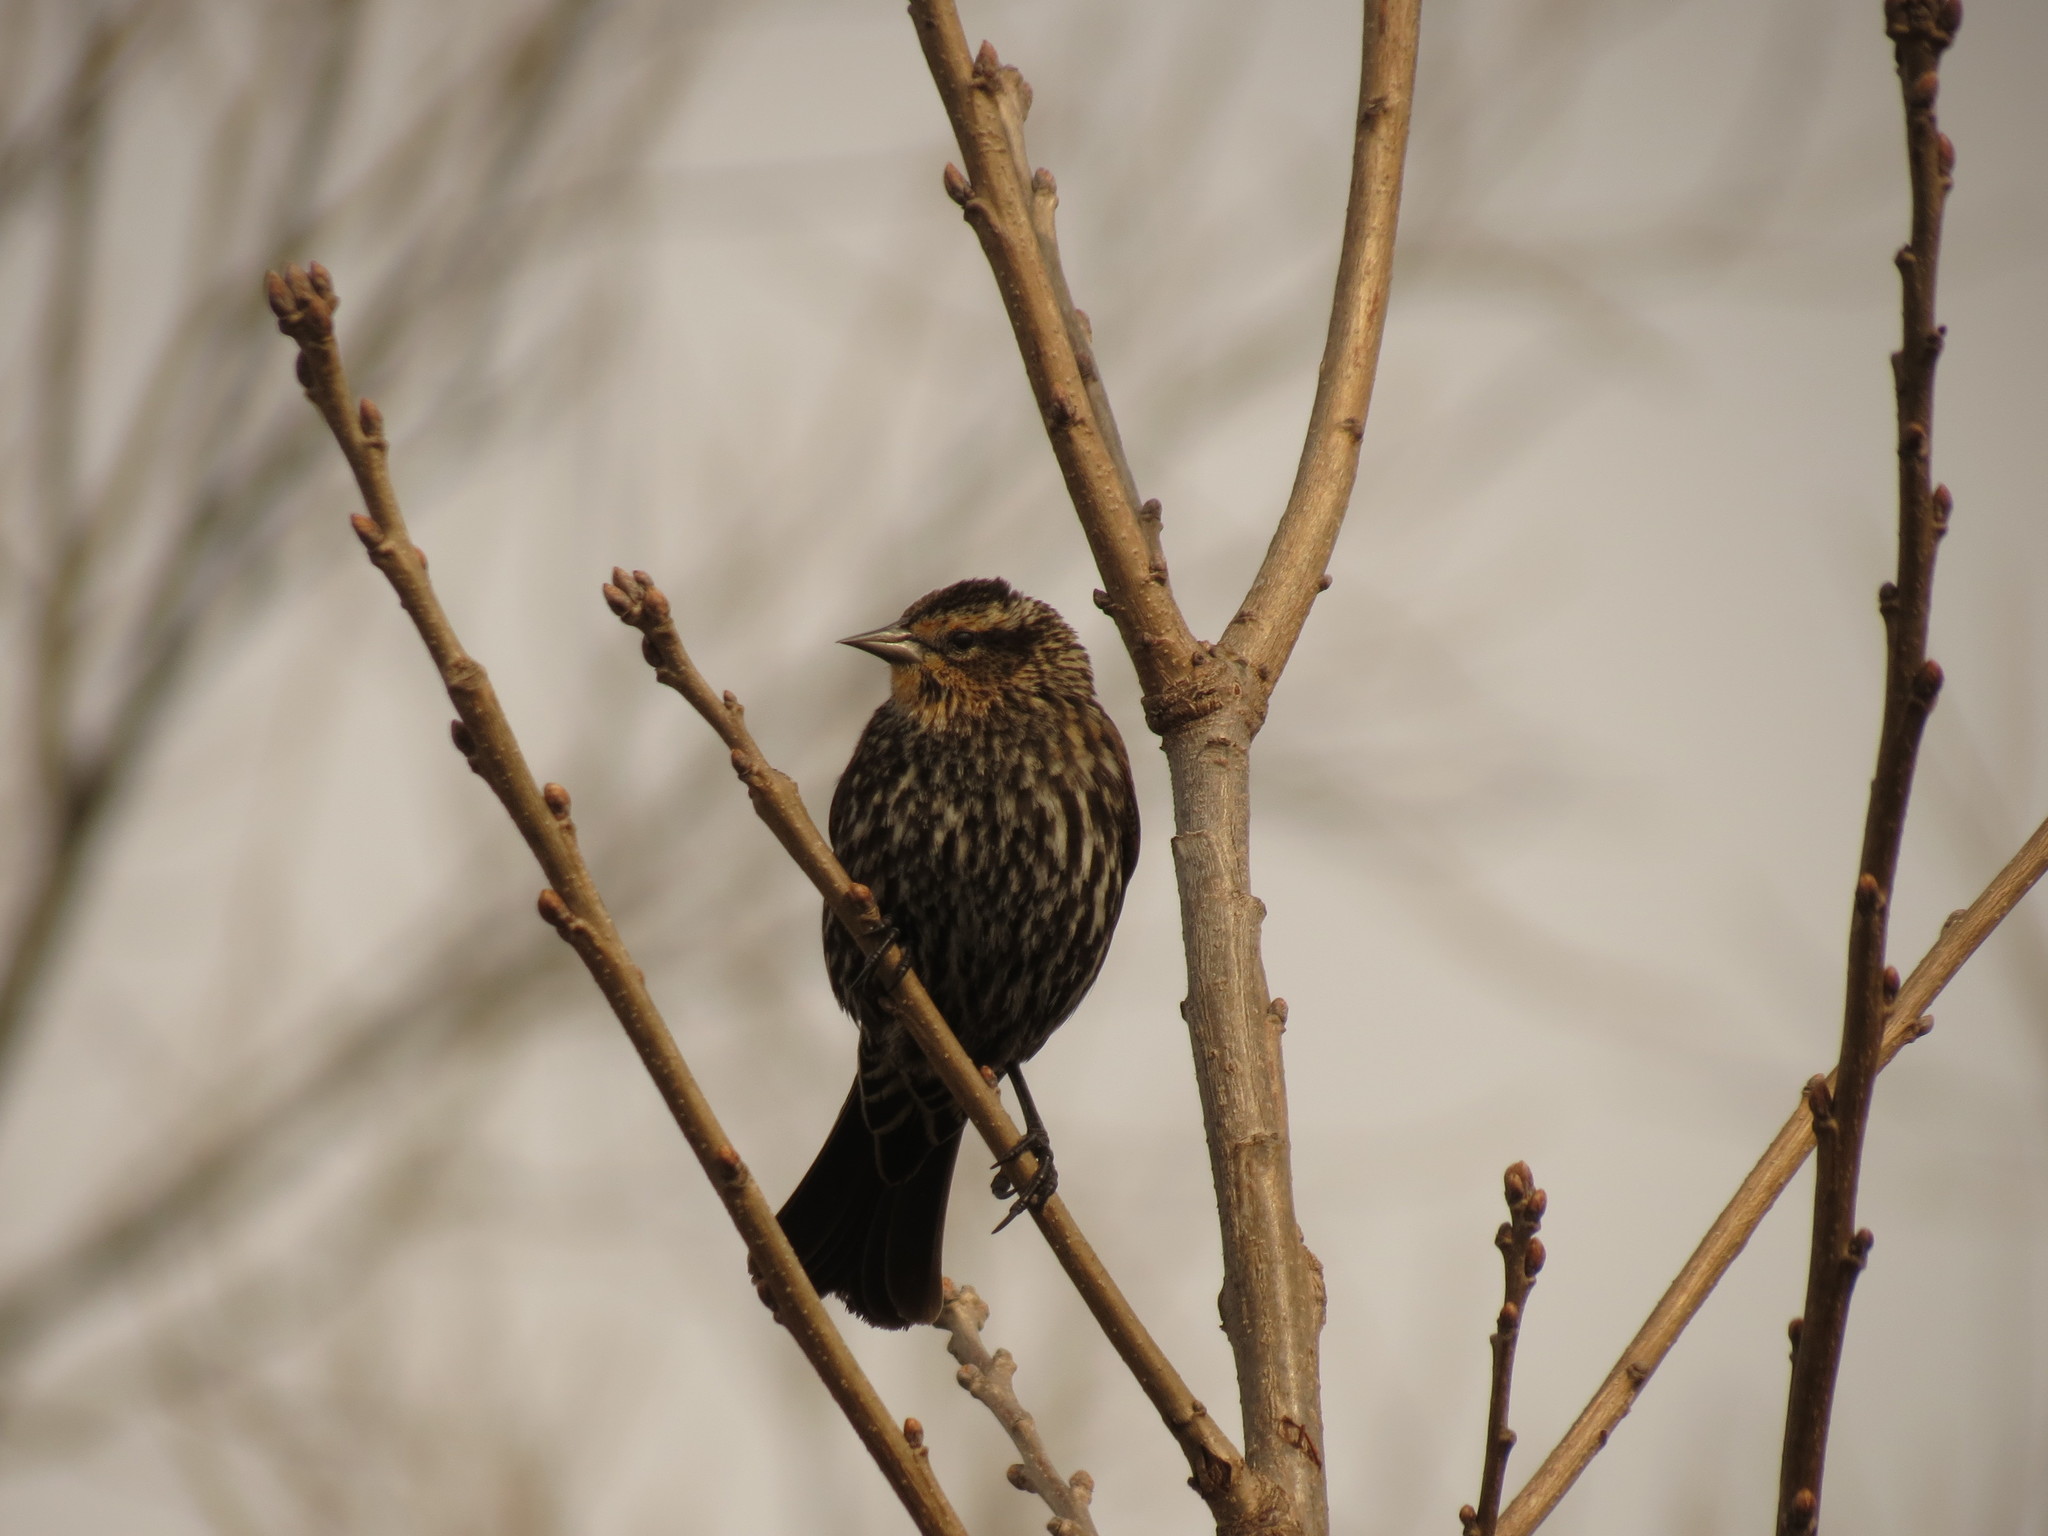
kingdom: Animalia
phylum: Chordata
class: Aves
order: Passeriformes
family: Icteridae
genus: Agelaius
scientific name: Agelaius phoeniceus
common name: Red-winged blackbird
